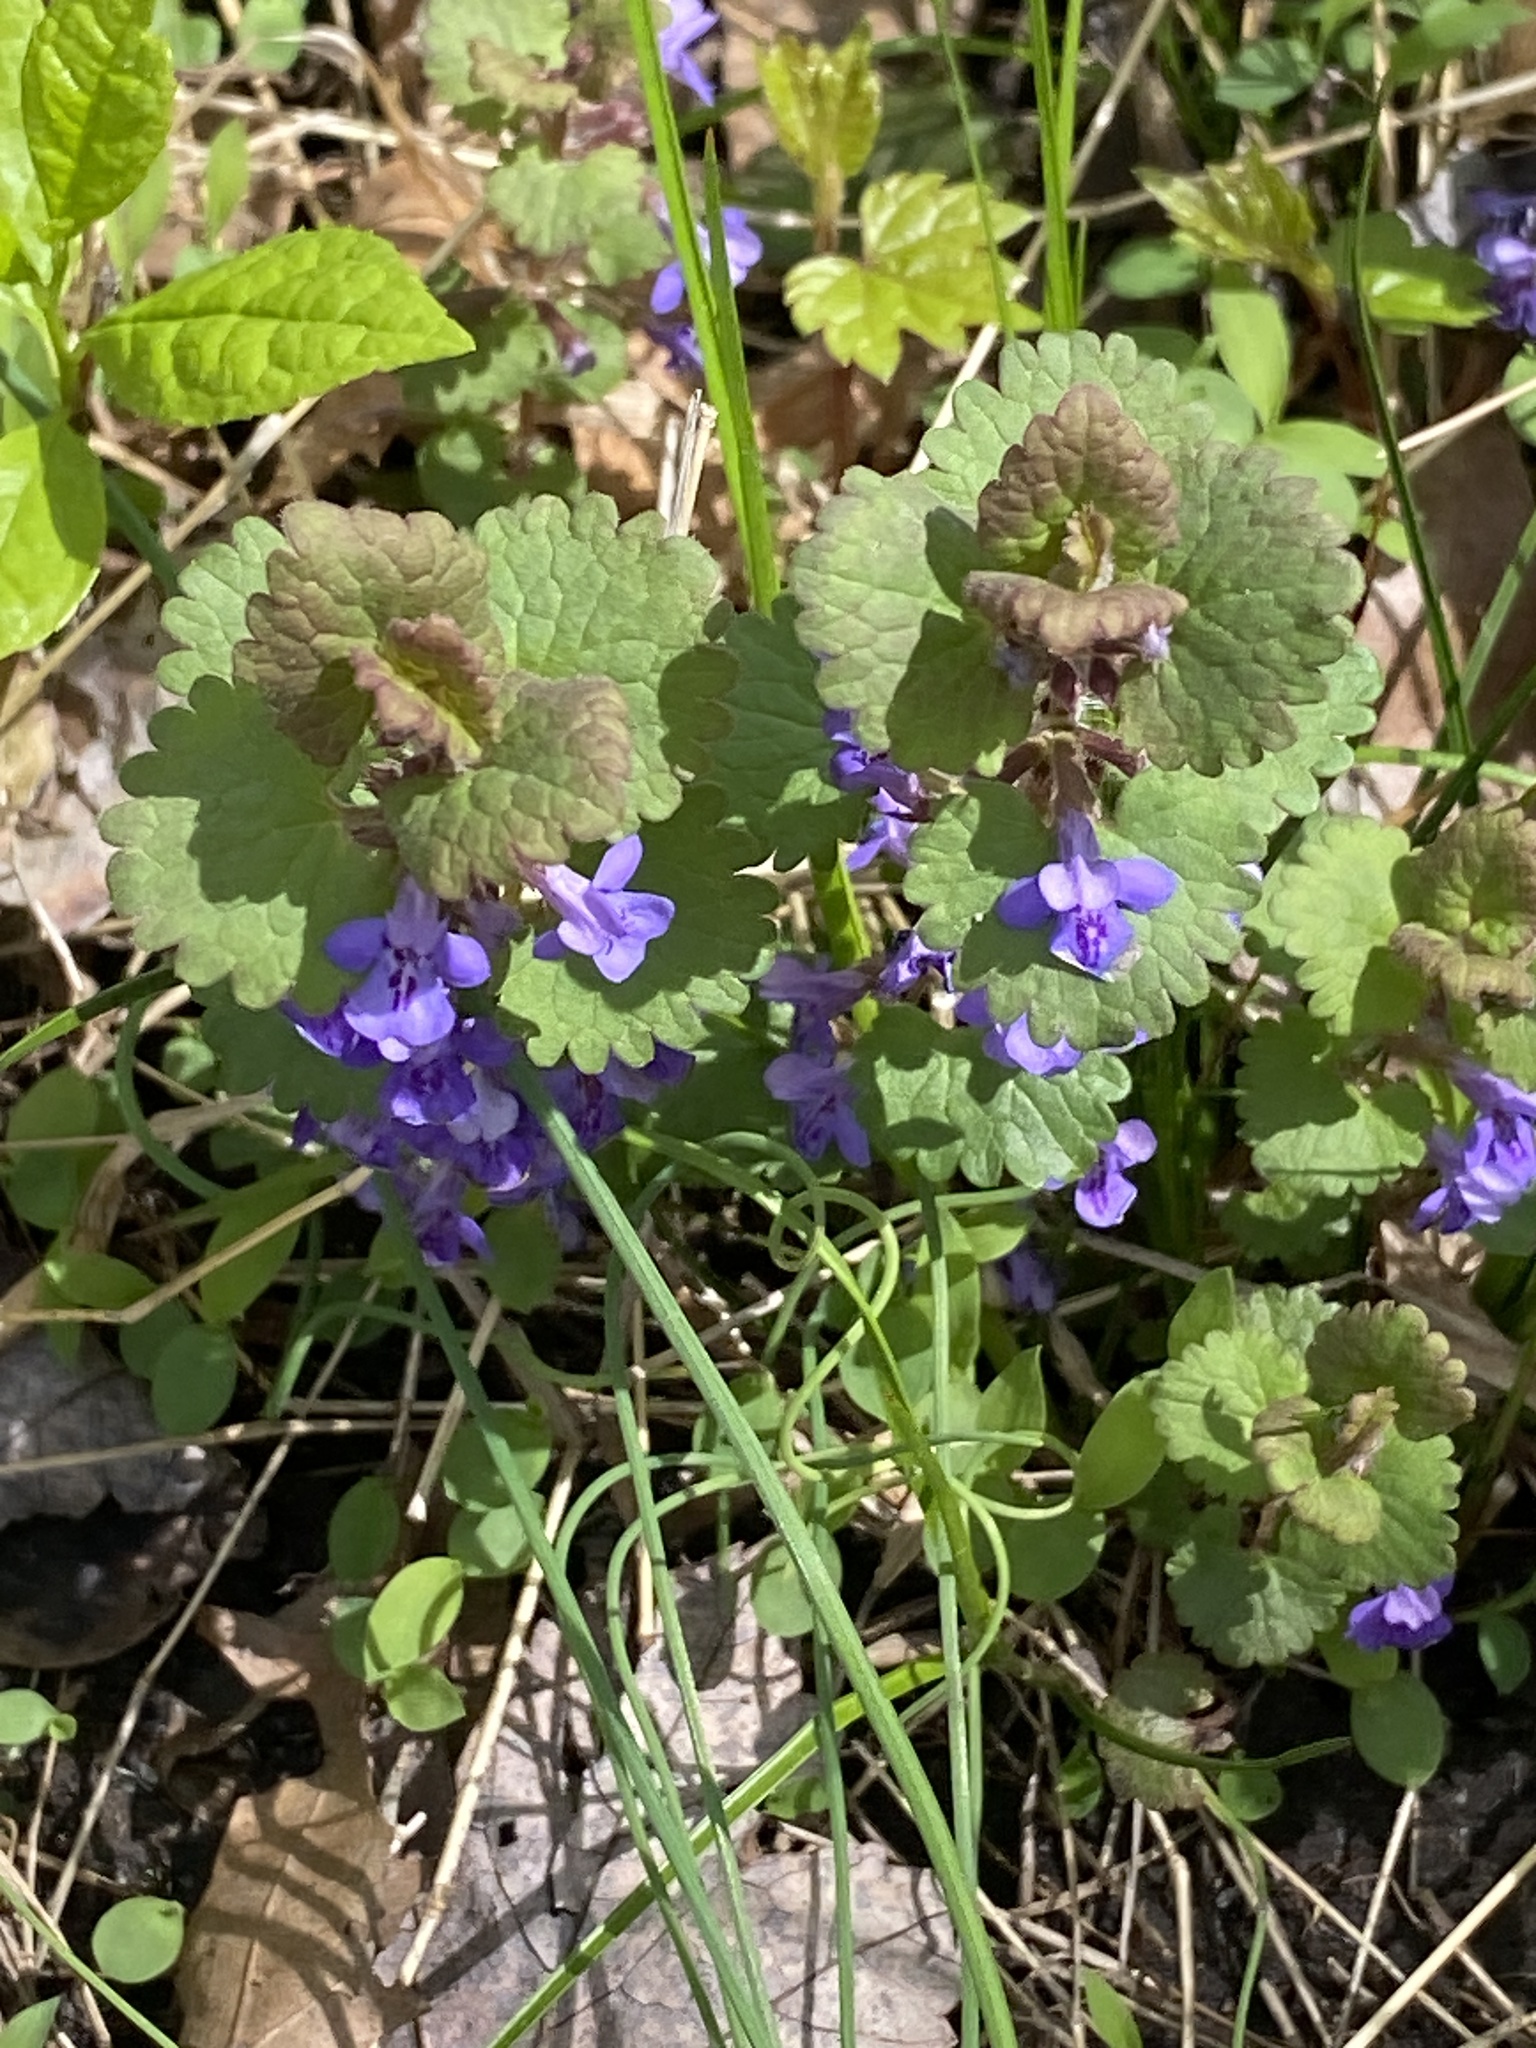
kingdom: Plantae
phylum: Tracheophyta
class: Magnoliopsida
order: Lamiales
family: Lamiaceae
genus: Glechoma
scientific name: Glechoma hederacea
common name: Ground ivy
